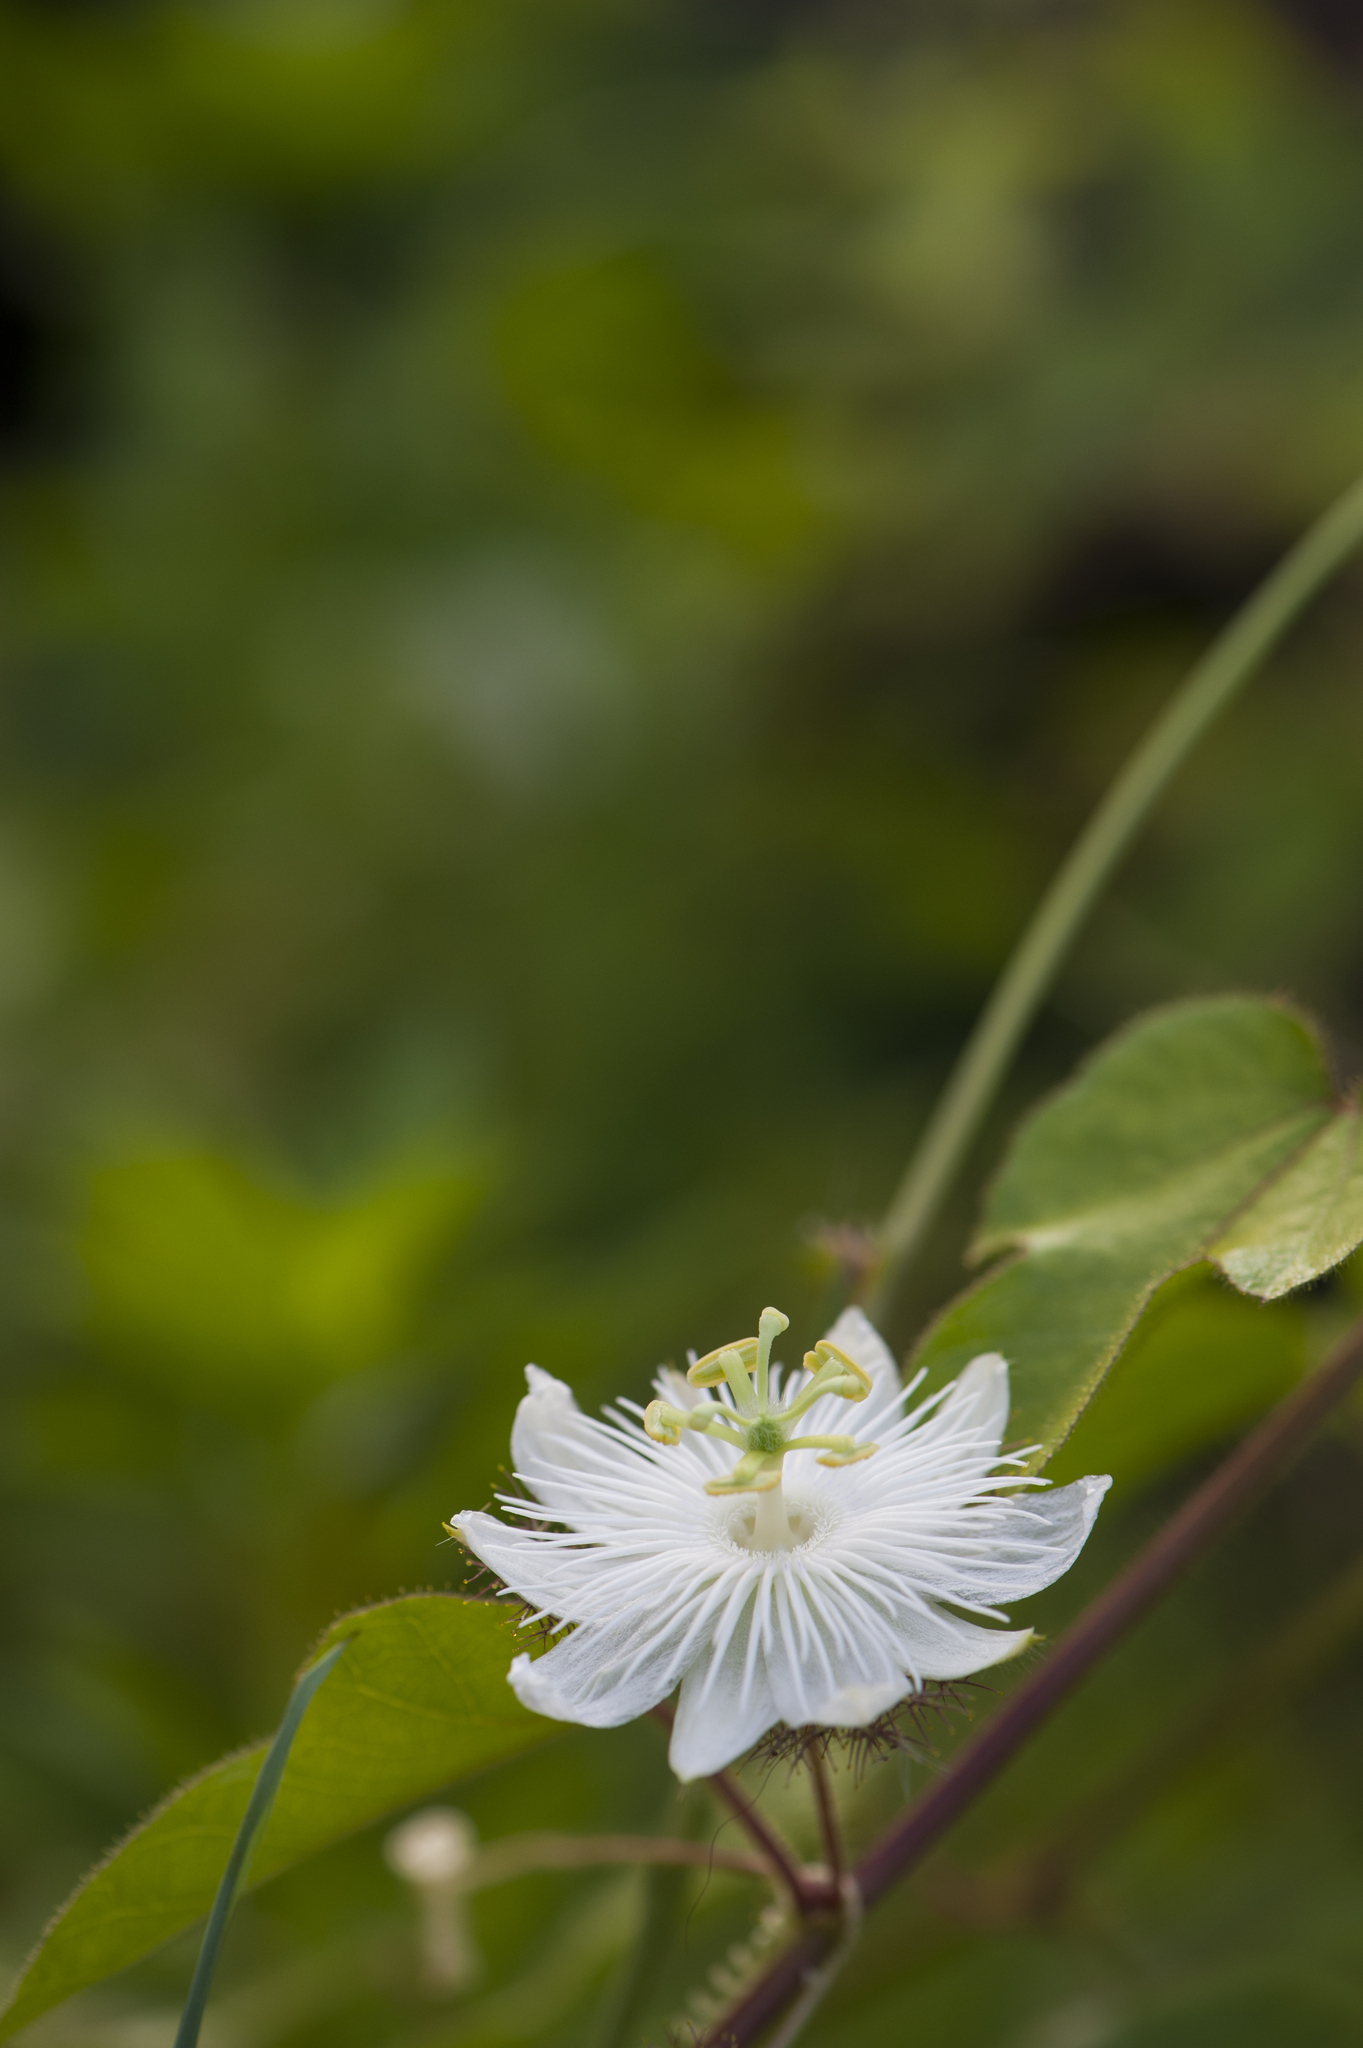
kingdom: Plantae
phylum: Tracheophyta
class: Magnoliopsida
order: Malpighiales
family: Passifloraceae
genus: Passiflora
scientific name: Passiflora foetida
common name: Fetid passionflower
